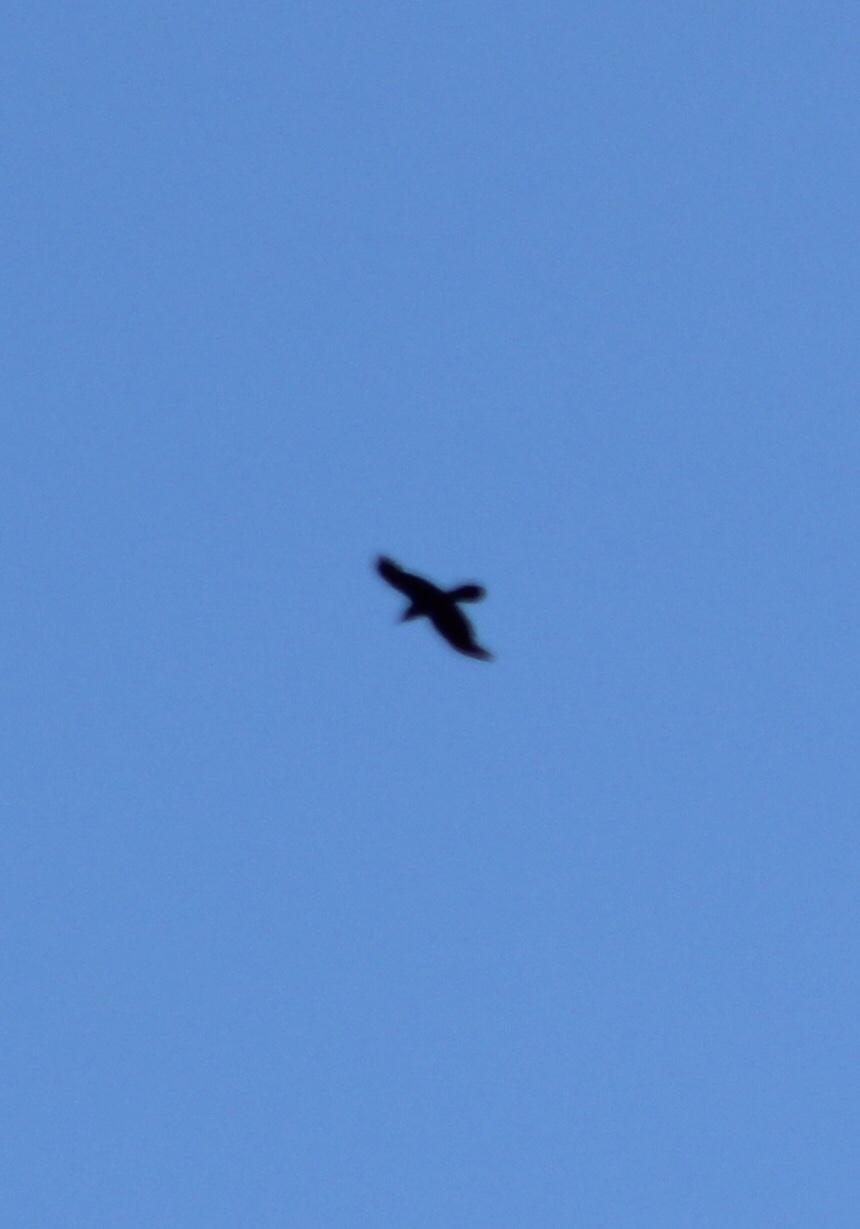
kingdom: Animalia
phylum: Chordata
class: Aves
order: Passeriformes
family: Corvidae
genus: Corvus
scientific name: Corvus corax
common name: Common raven
